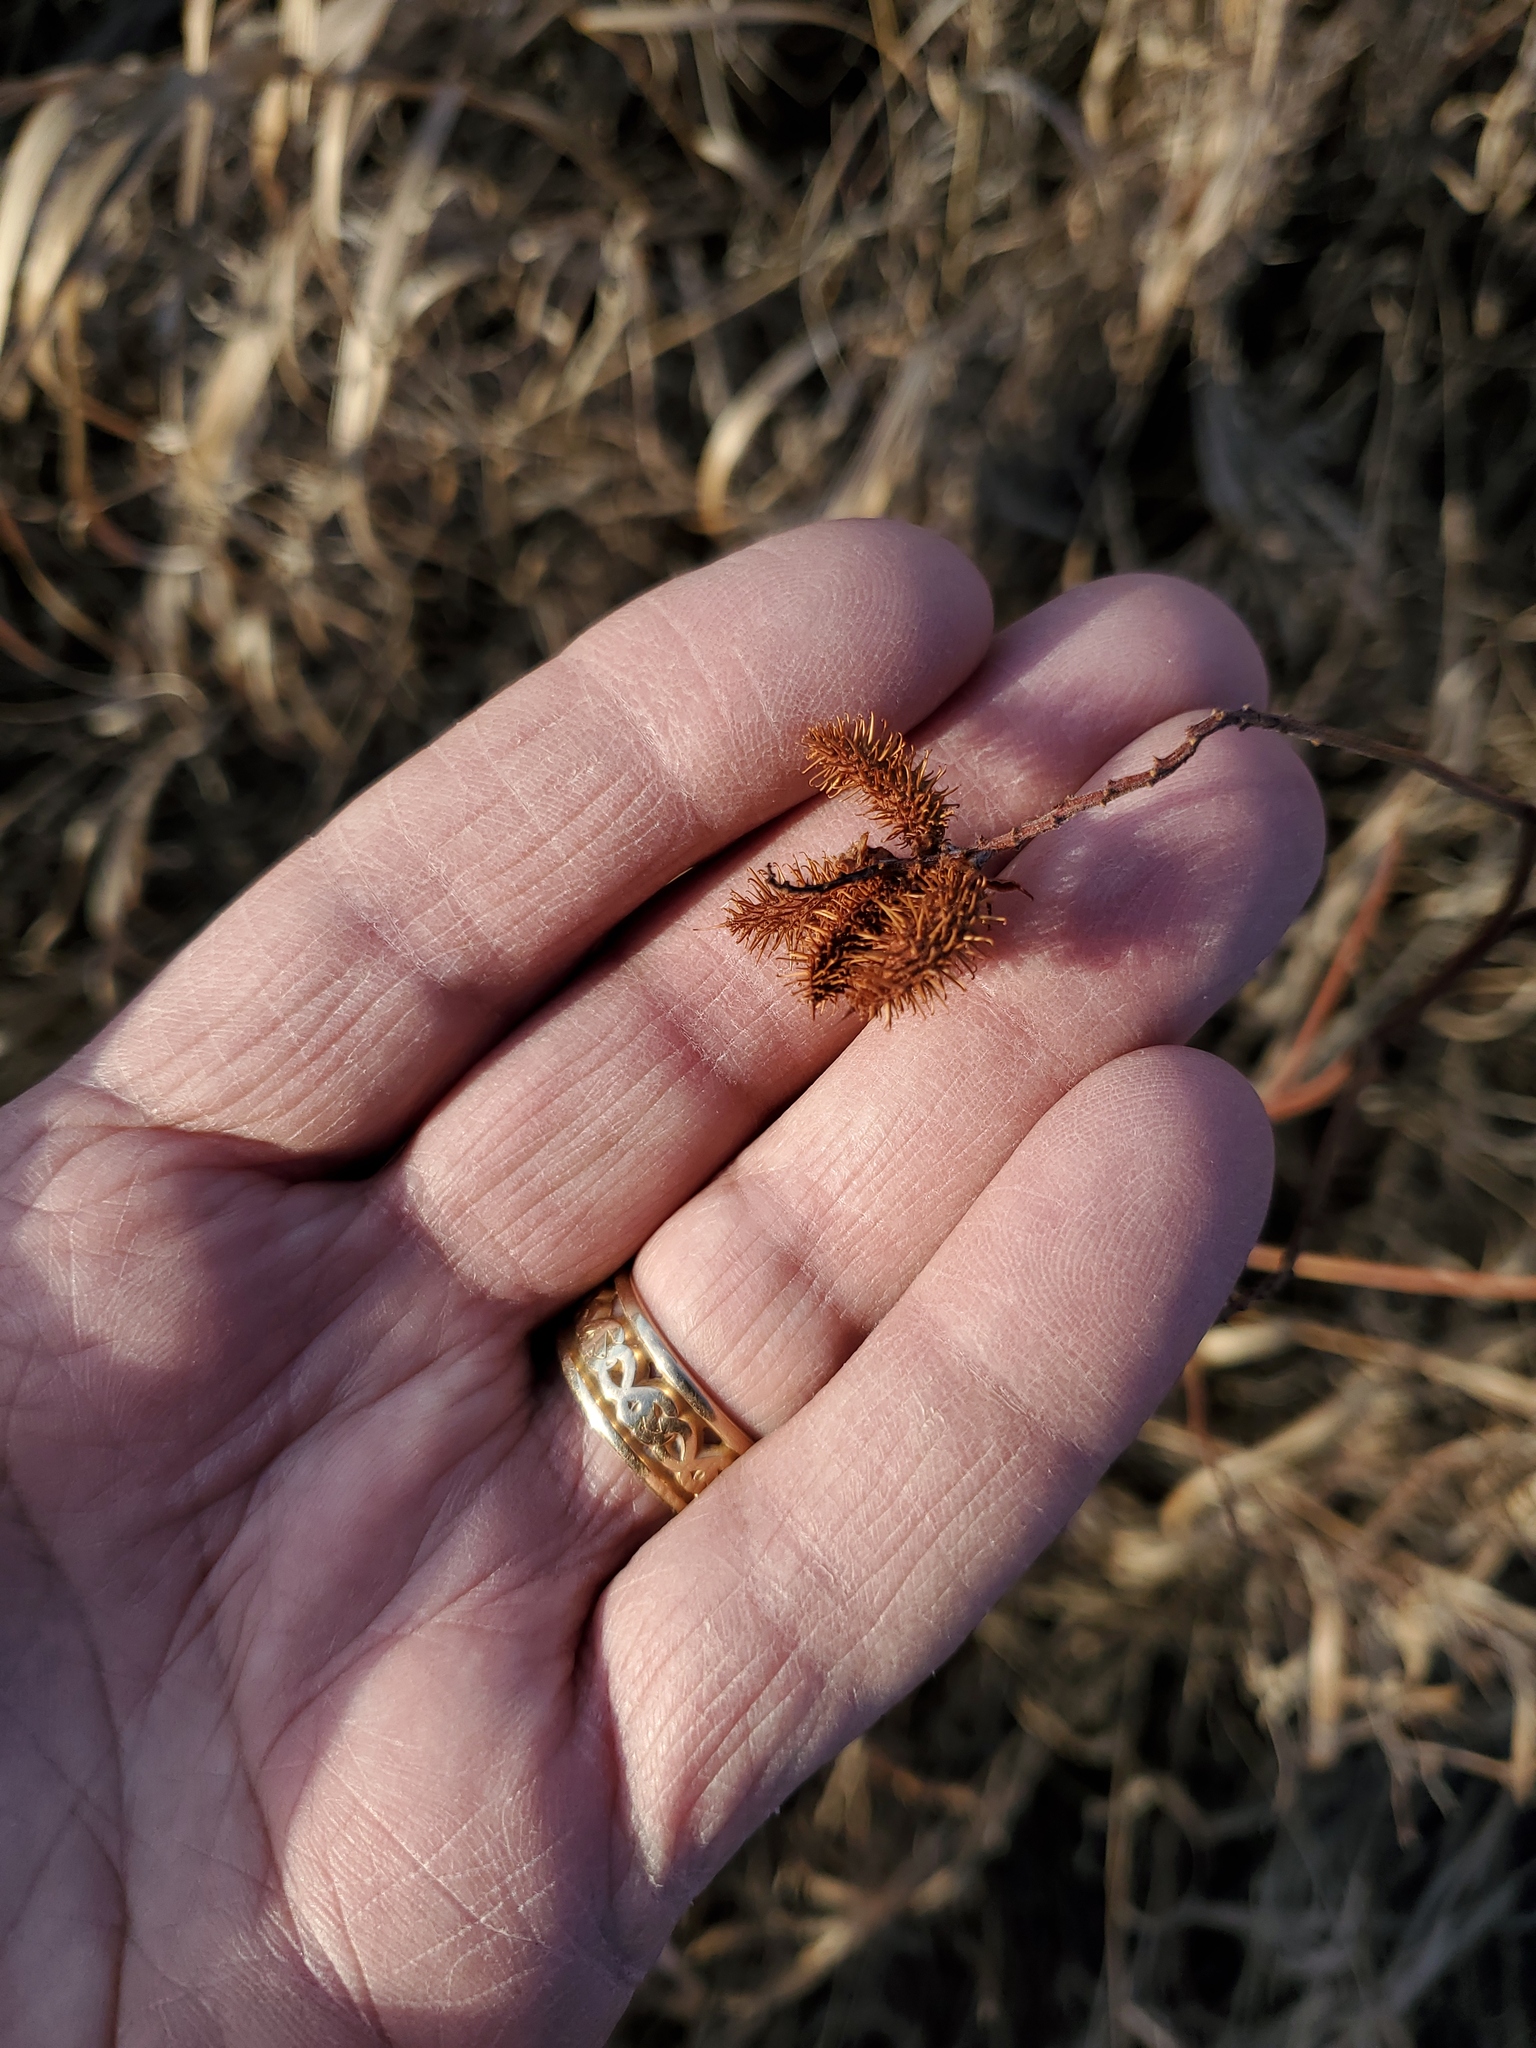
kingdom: Plantae
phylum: Tracheophyta
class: Magnoliopsida
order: Fabales
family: Fabaceae
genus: Glycyrrhiza
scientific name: Glycyrrhiza lepidota
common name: American liquorice
